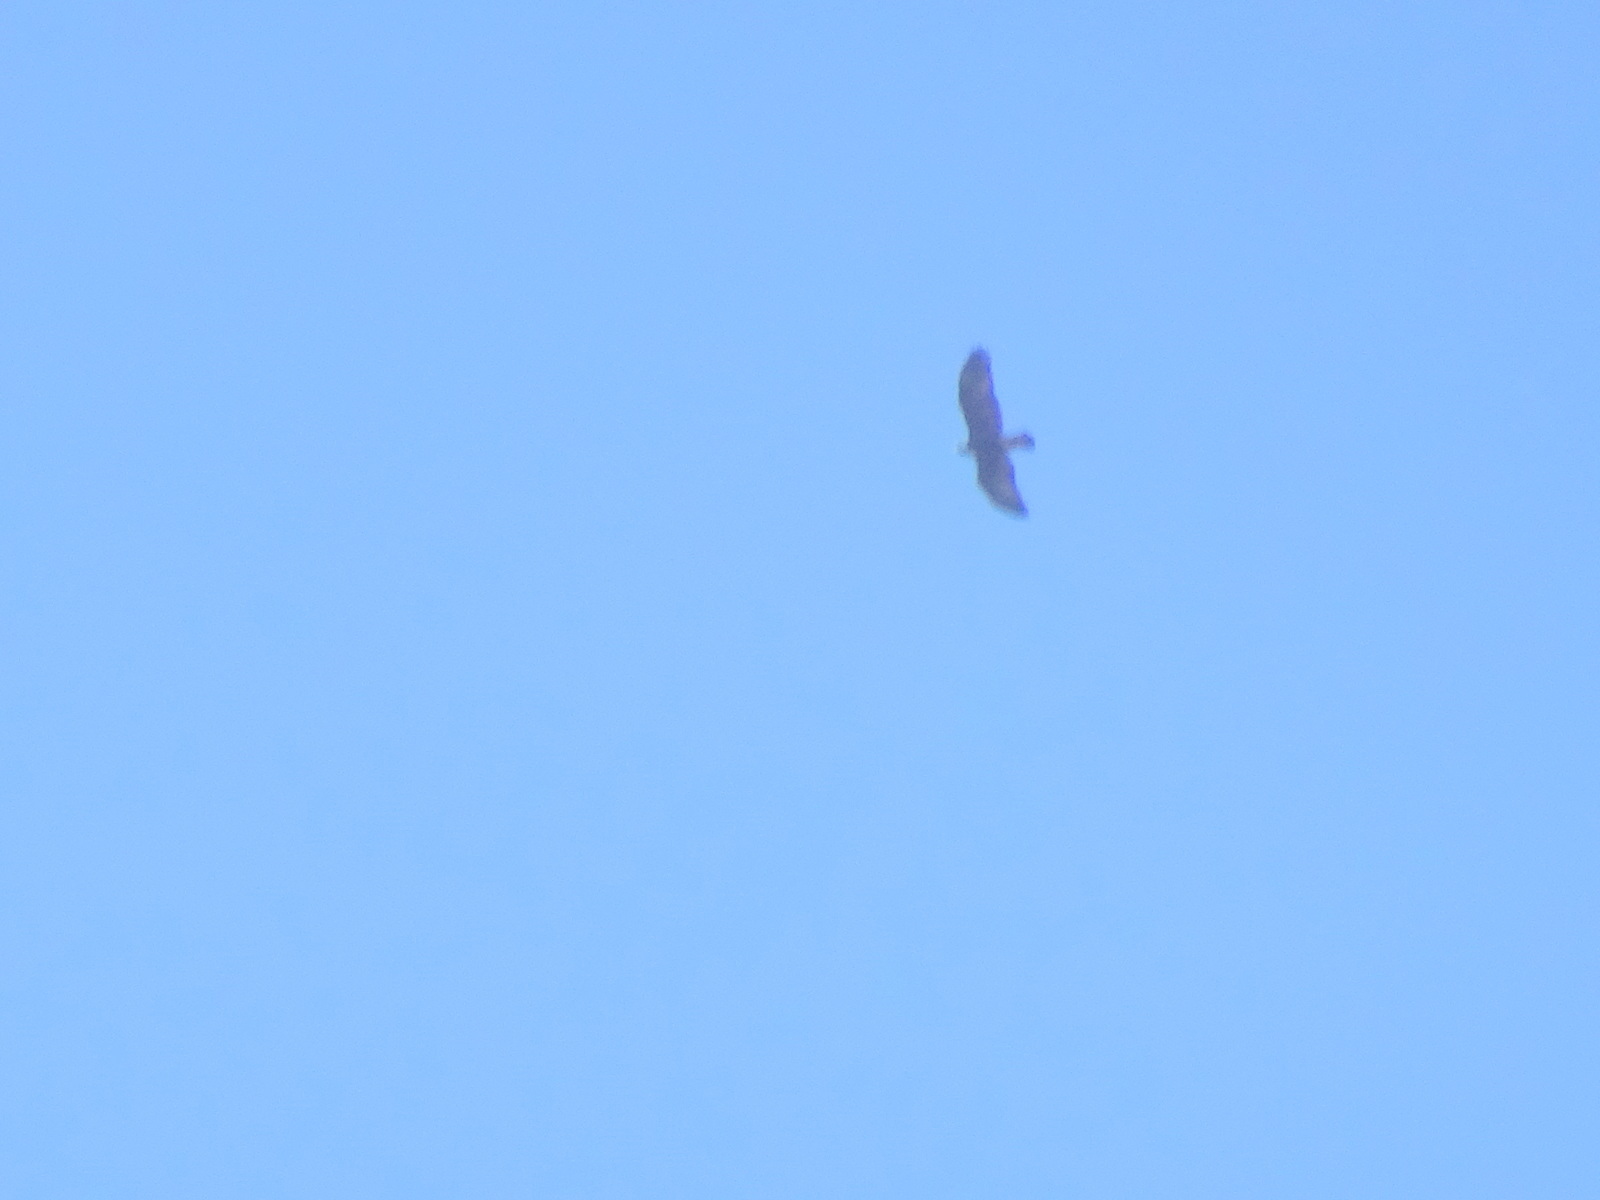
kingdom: Animalia
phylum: Chordata
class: Aves
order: Accipitriformes
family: Accipitridae
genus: Aquila
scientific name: Aquila chrysaetos
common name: Golden eagle
